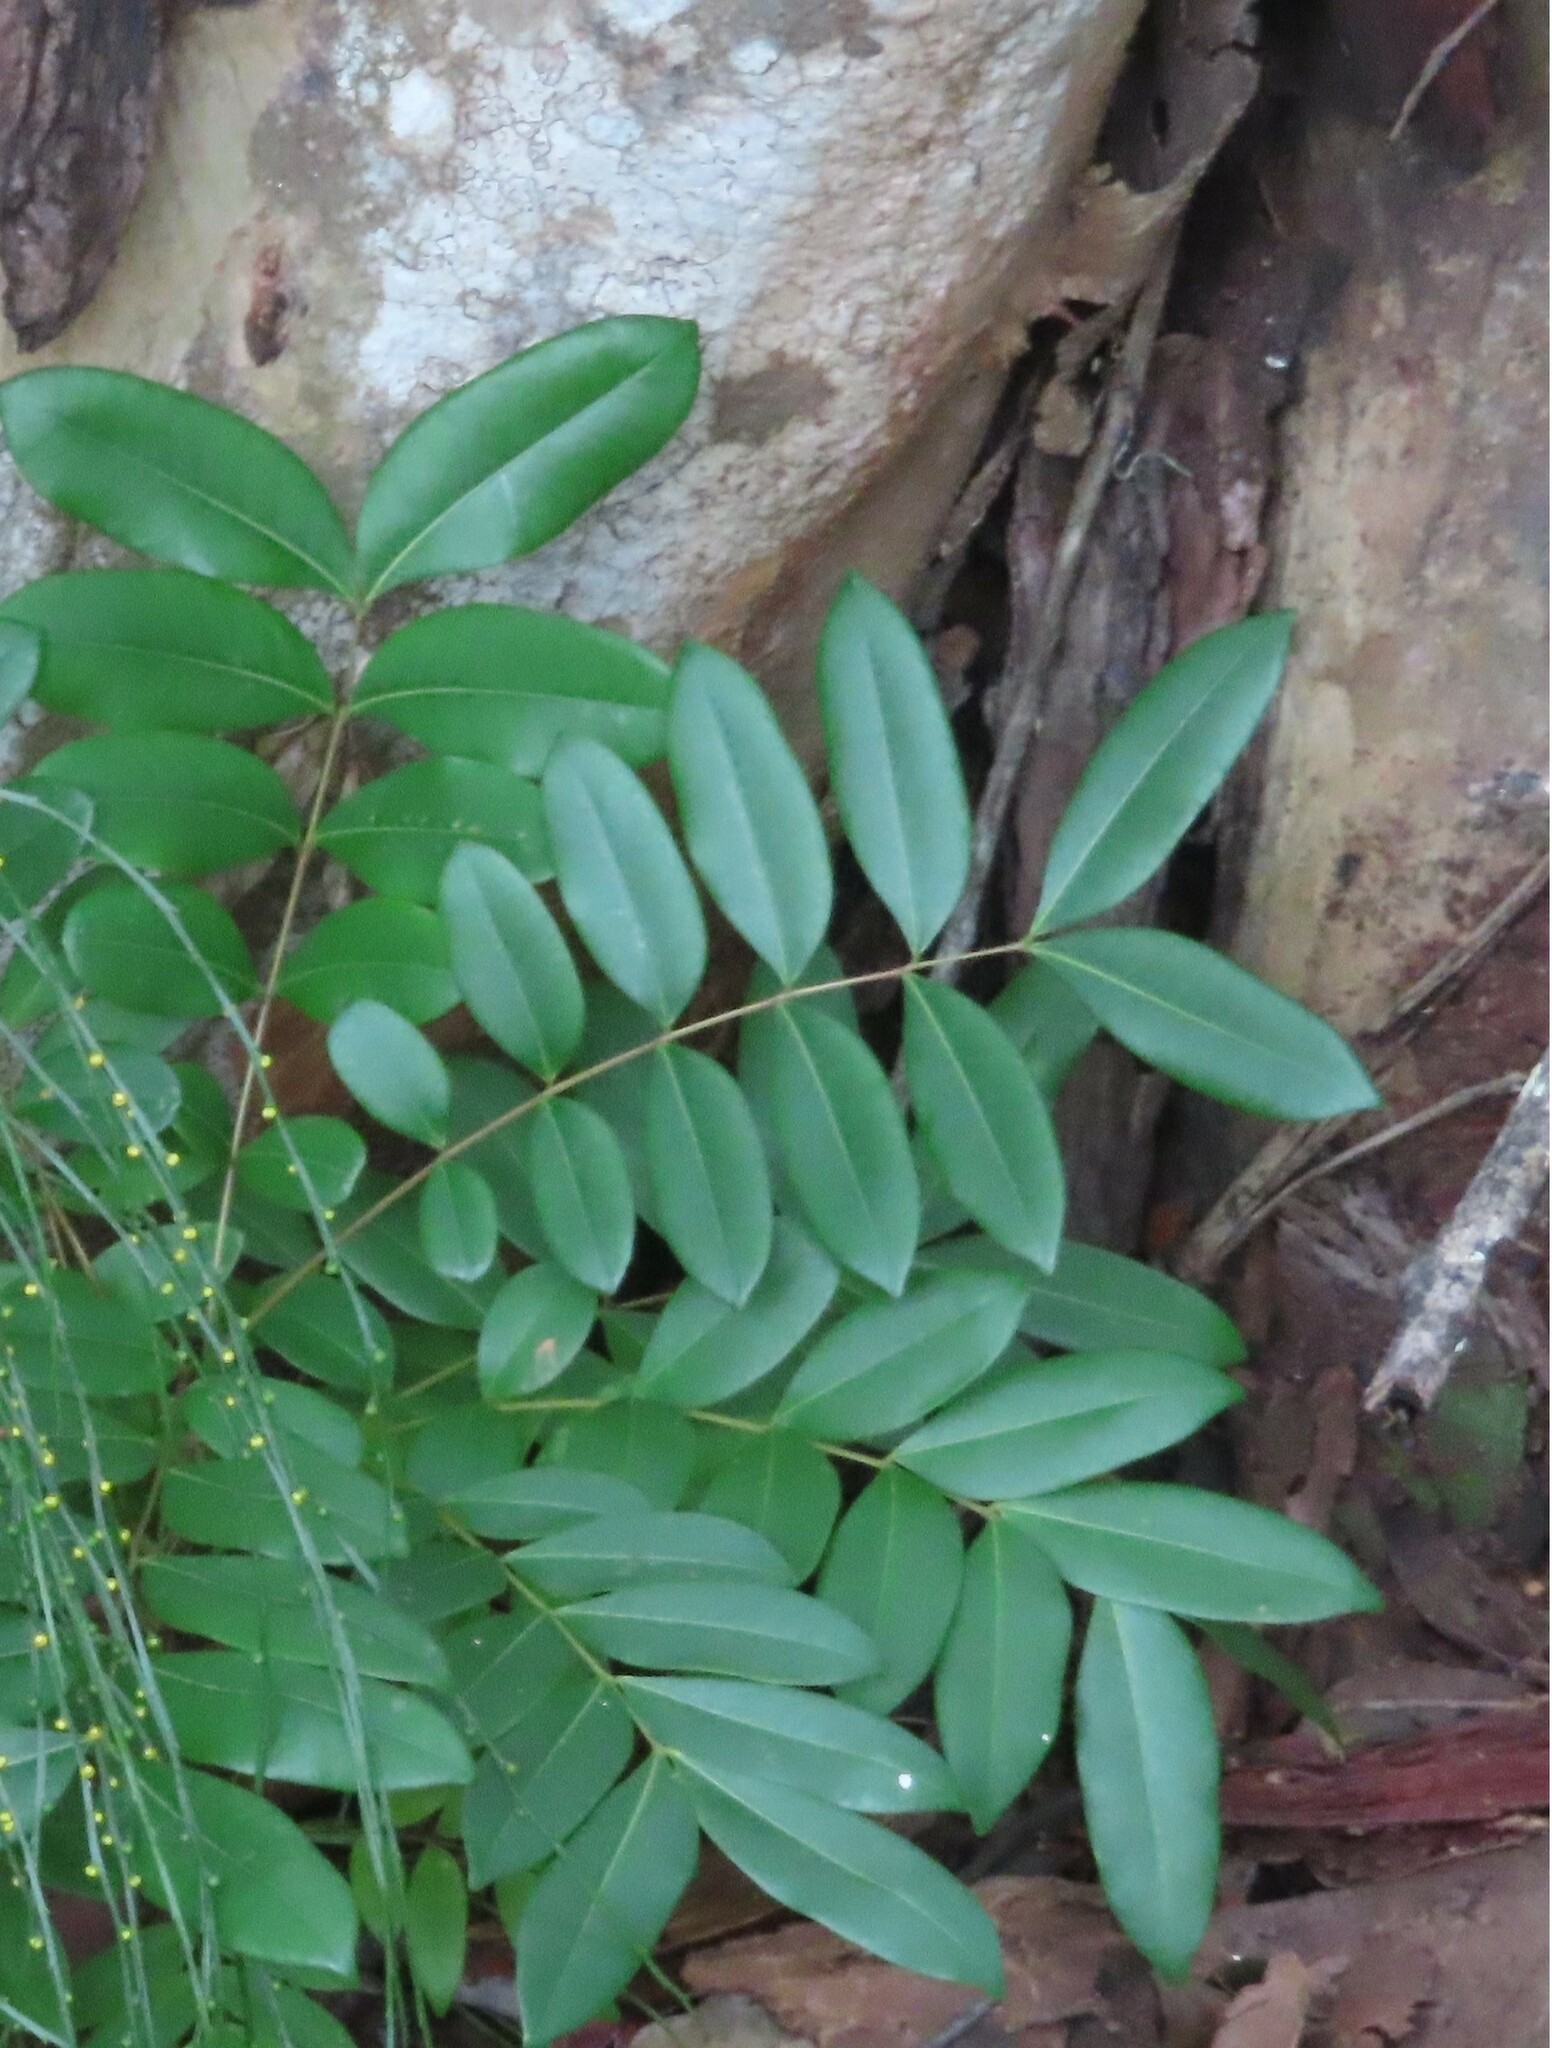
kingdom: Plantae
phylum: Tracheophyta
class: Magnoliopsida
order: Sapindales
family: Simaroubaceae
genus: Simarouba
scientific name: Simarouba glauca
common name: Dysentery-bark
